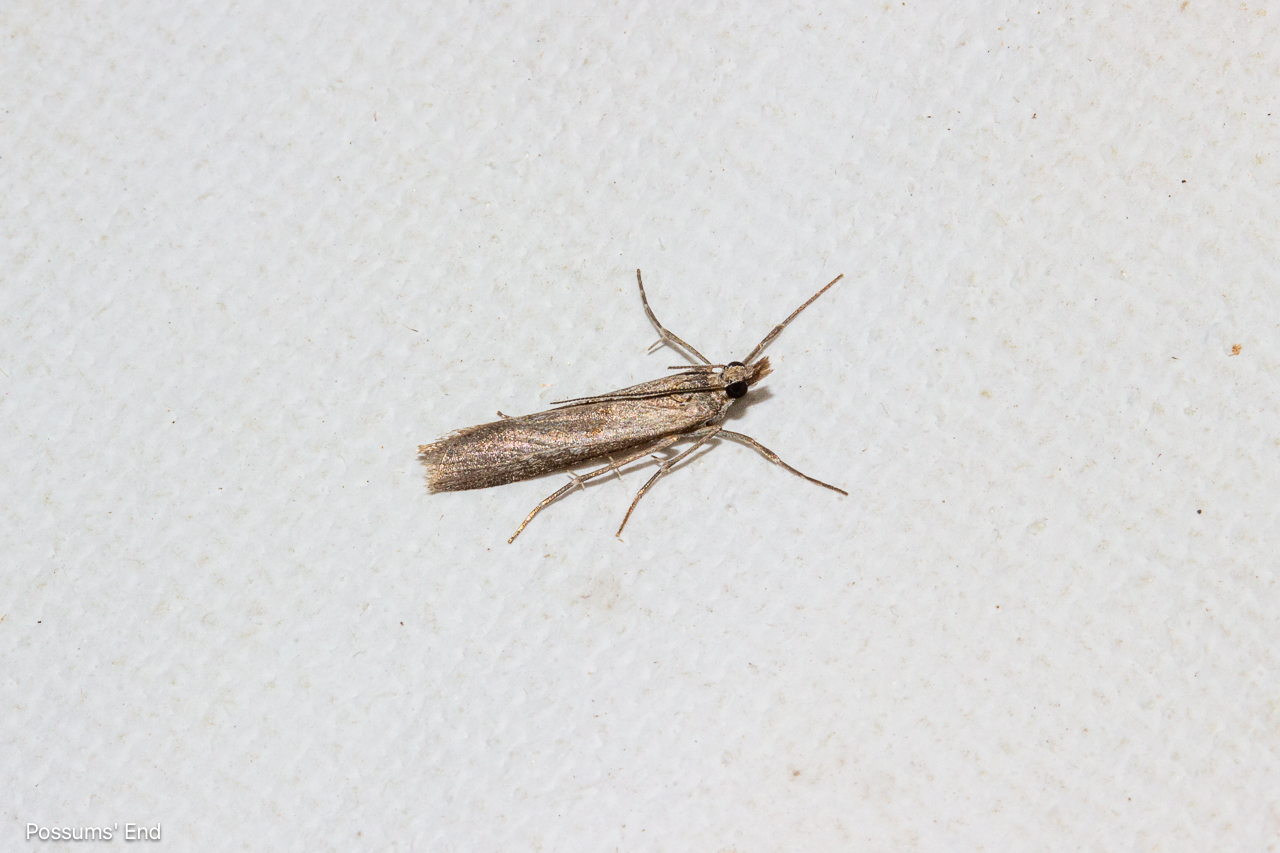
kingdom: Animalia
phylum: Arthropoda
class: Insecta
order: Lepidoptera
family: Crambidae
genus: Eudonia
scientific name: Eudonia leptalea
